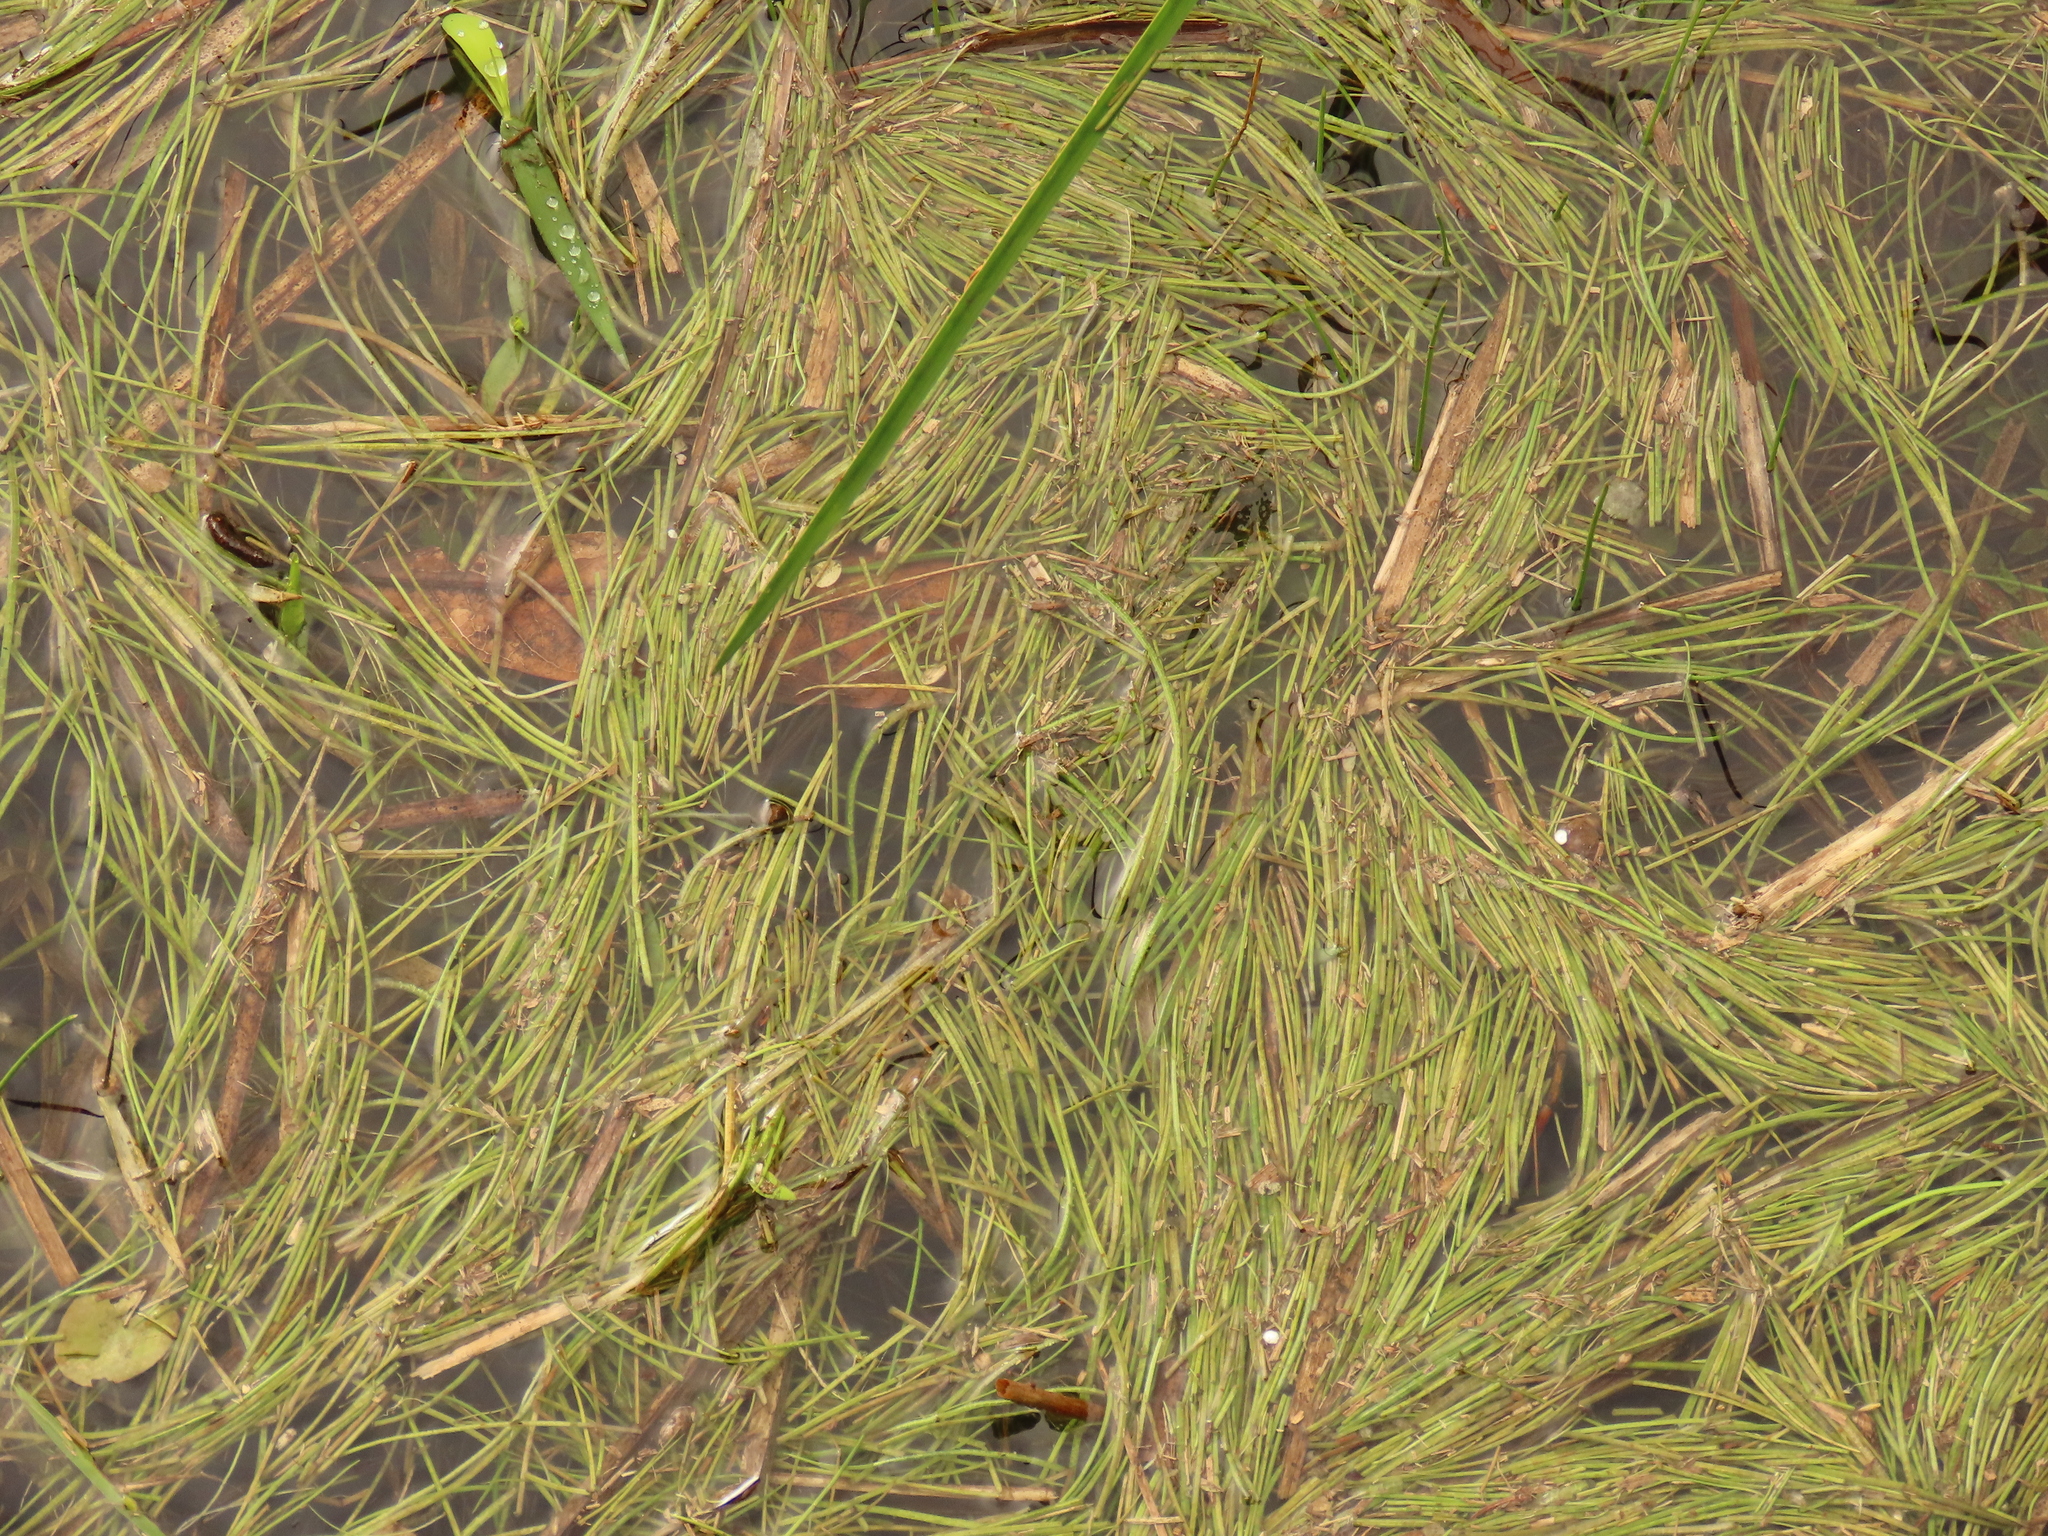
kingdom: Plantae
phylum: Tracheophyta
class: Lycopodiopsida
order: Isoetales
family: Isoetaceae
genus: Isoetes
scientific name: Isoetes taiwanensis
